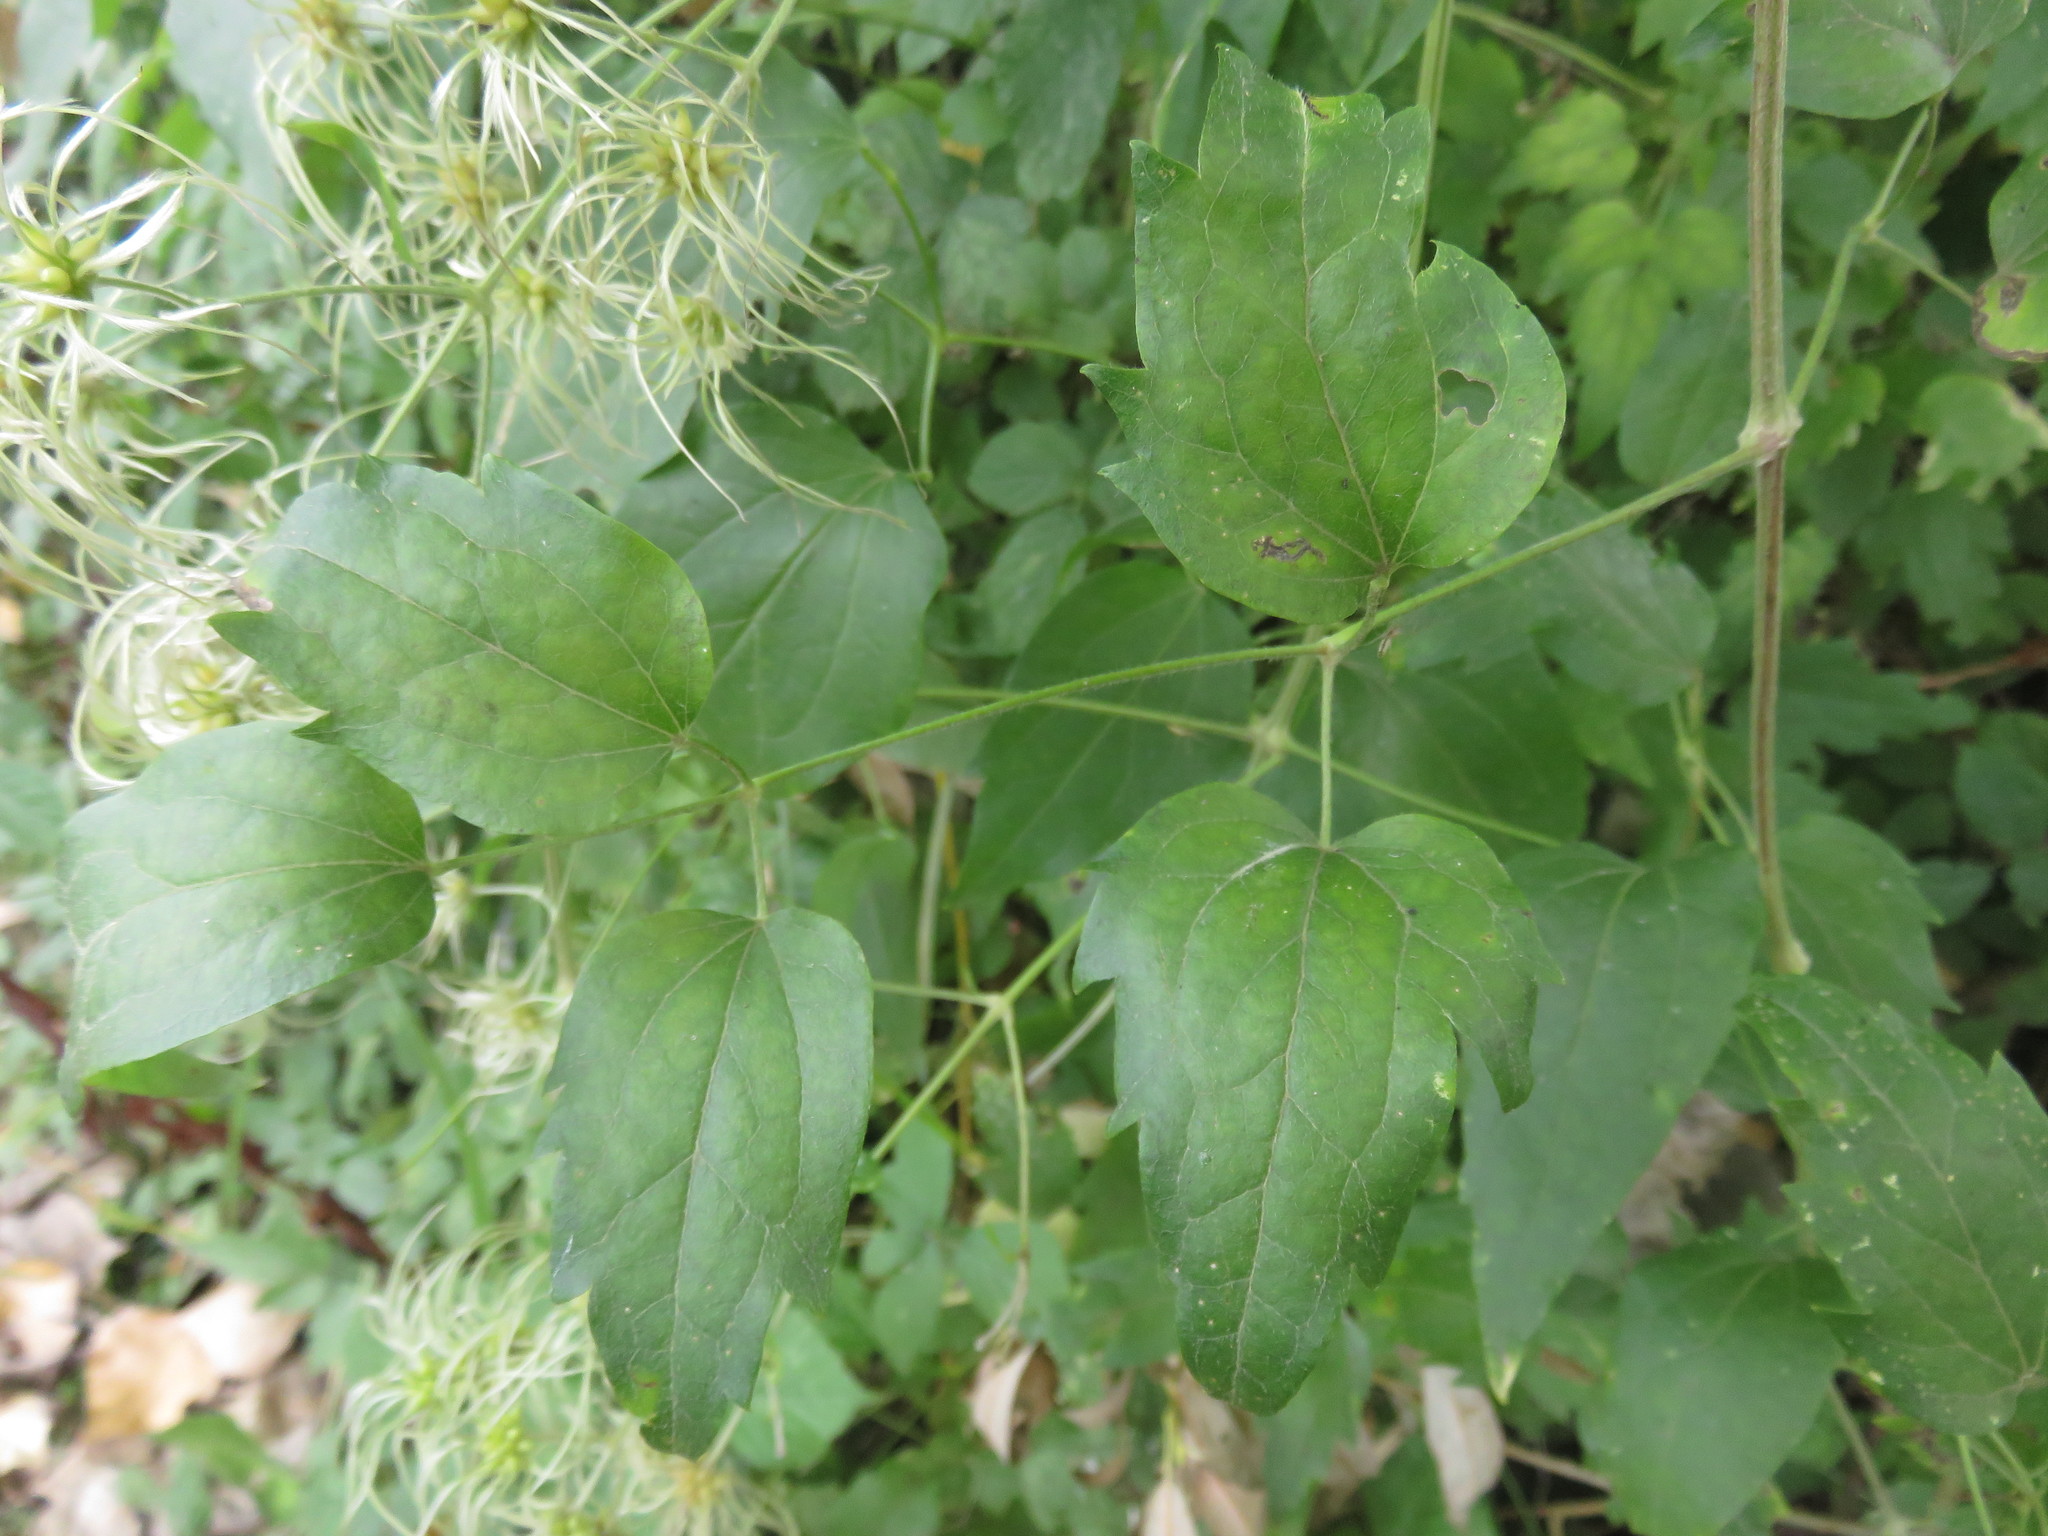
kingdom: Plantae
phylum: Tracheophyta
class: Magnoliopsida
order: Ranunculales
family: Ranunculaceae
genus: Clematis
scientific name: Clematis vitalba
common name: Evergreen clematis
